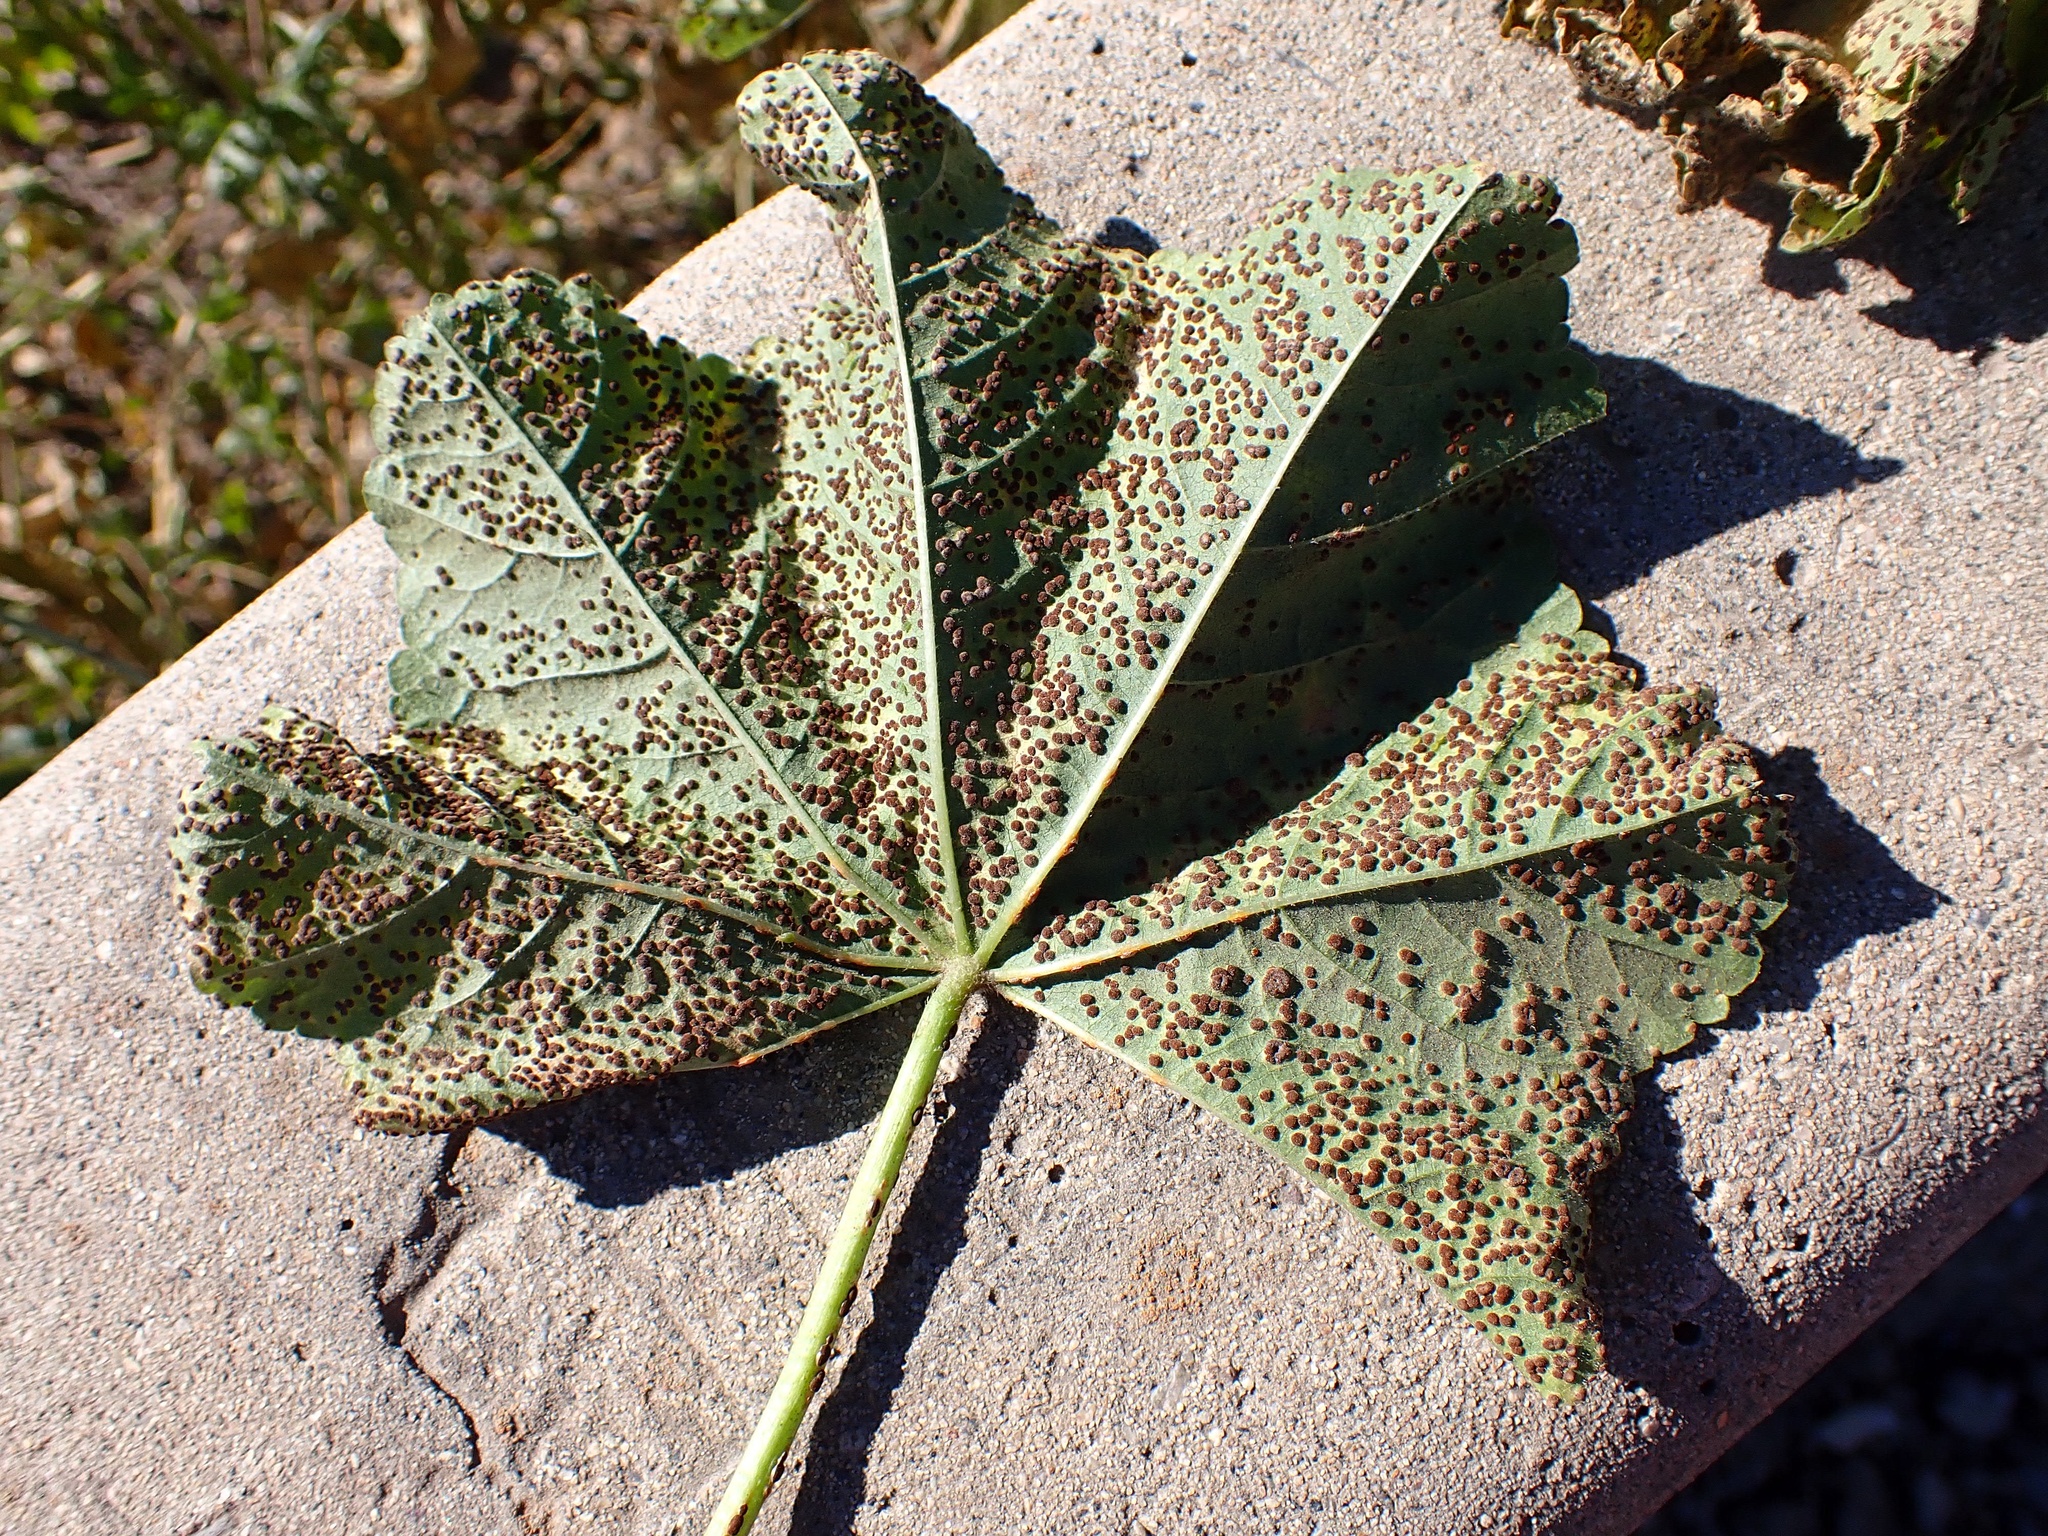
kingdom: Plantae
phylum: Tracheophyta
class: Magnoliopsida
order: Malvales
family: Malvaceae
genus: Malva
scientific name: Malva parviflora
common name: Least mallow
